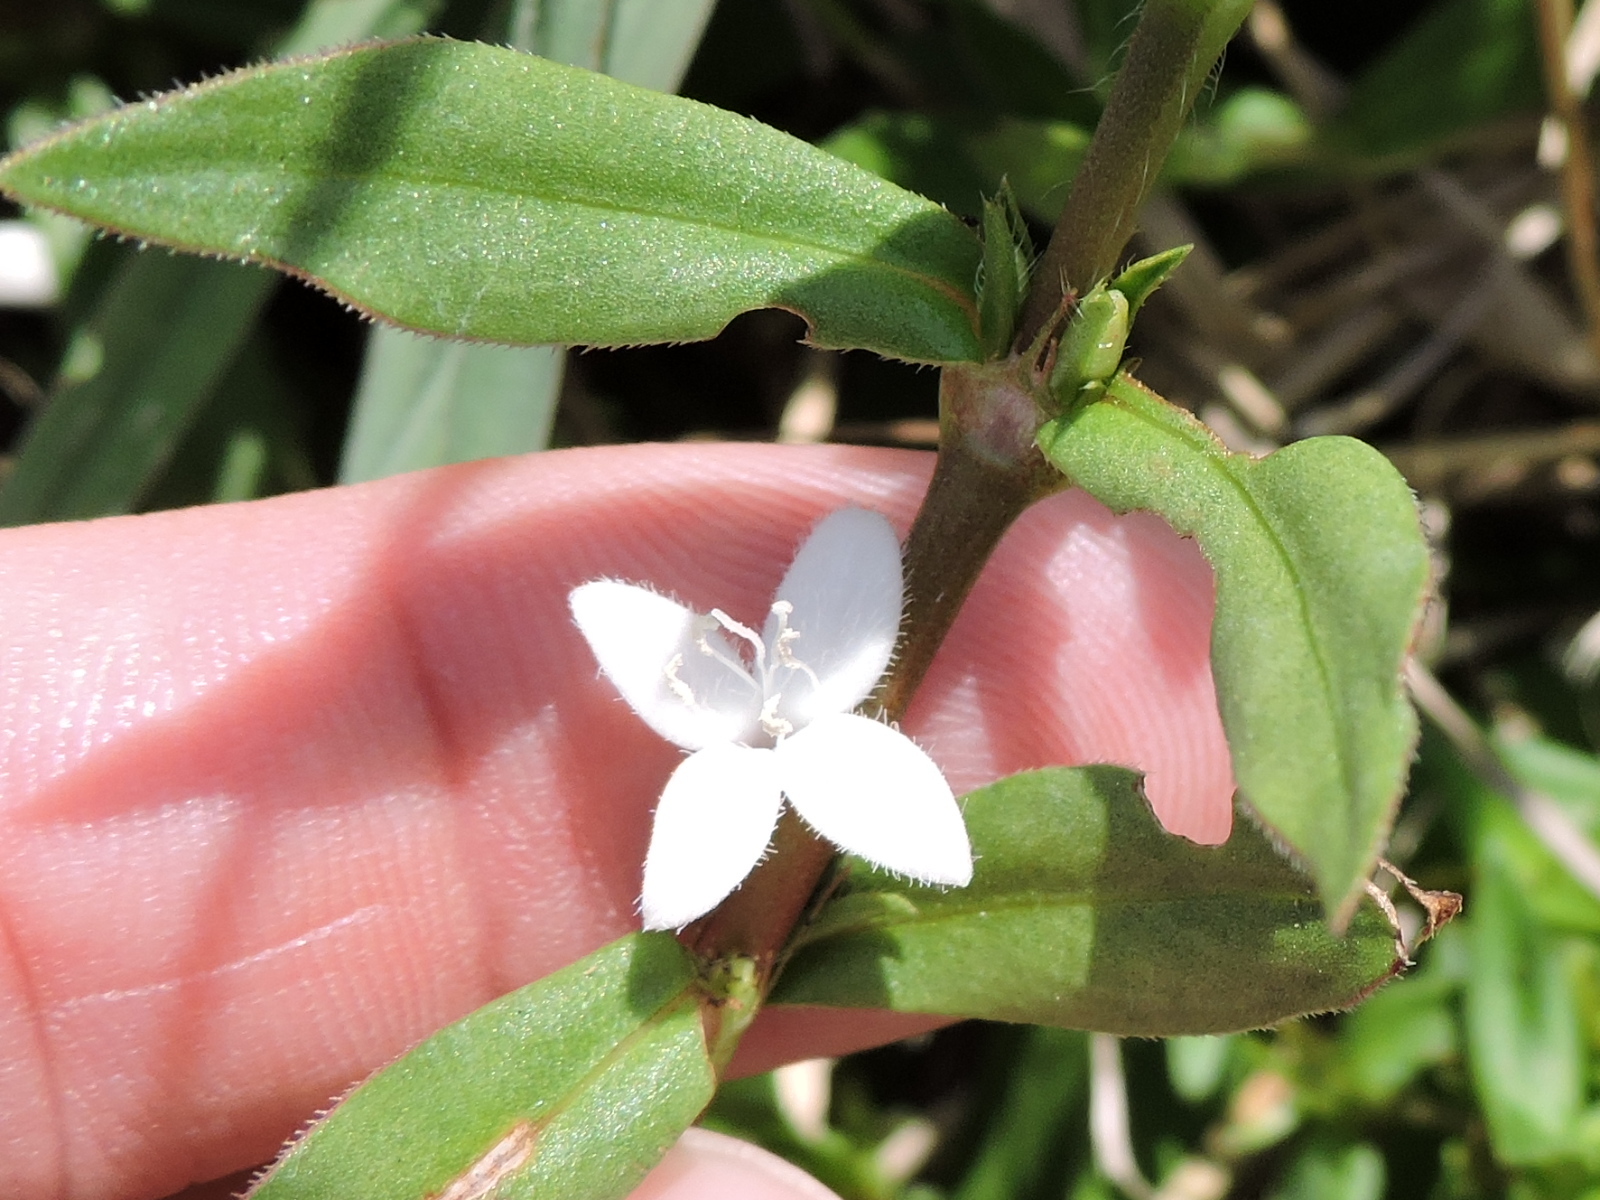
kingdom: Plantae
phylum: Tracheophyta
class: Magnoliopsida
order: Gentianales
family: Rubiaceae
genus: Diodia
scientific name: Diodia virginiana
